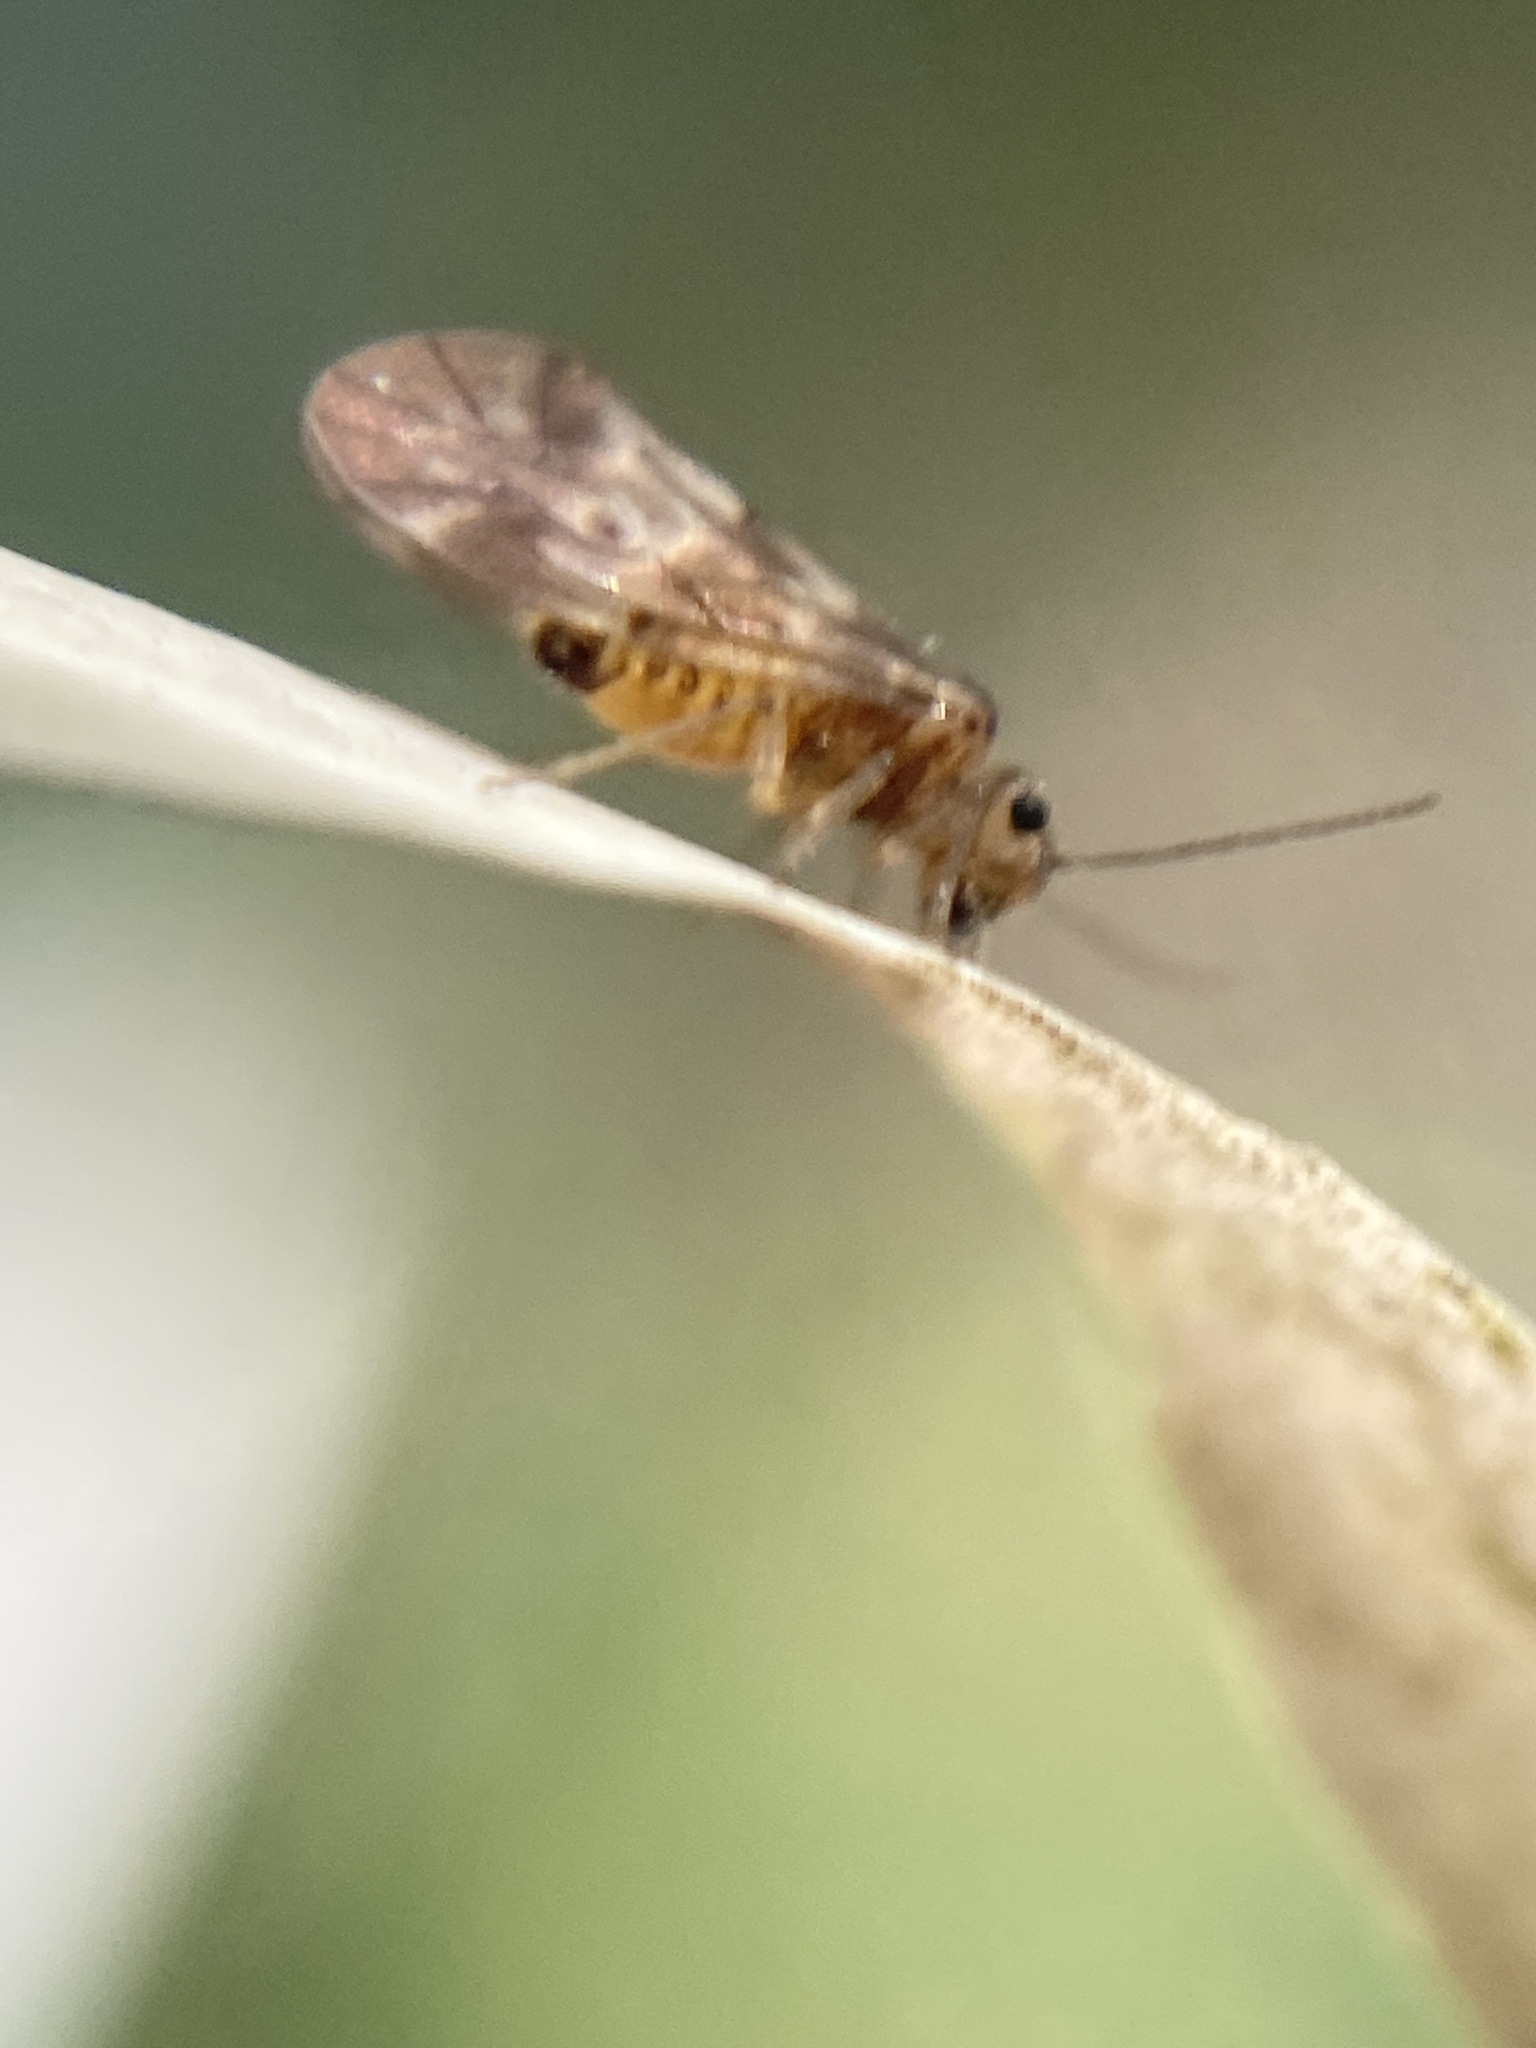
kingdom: Animalia
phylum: Arthropoda
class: Insecta
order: Psocodea
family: Peripsocidae
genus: Peripsocus
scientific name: Peripsocus subfasciatus
